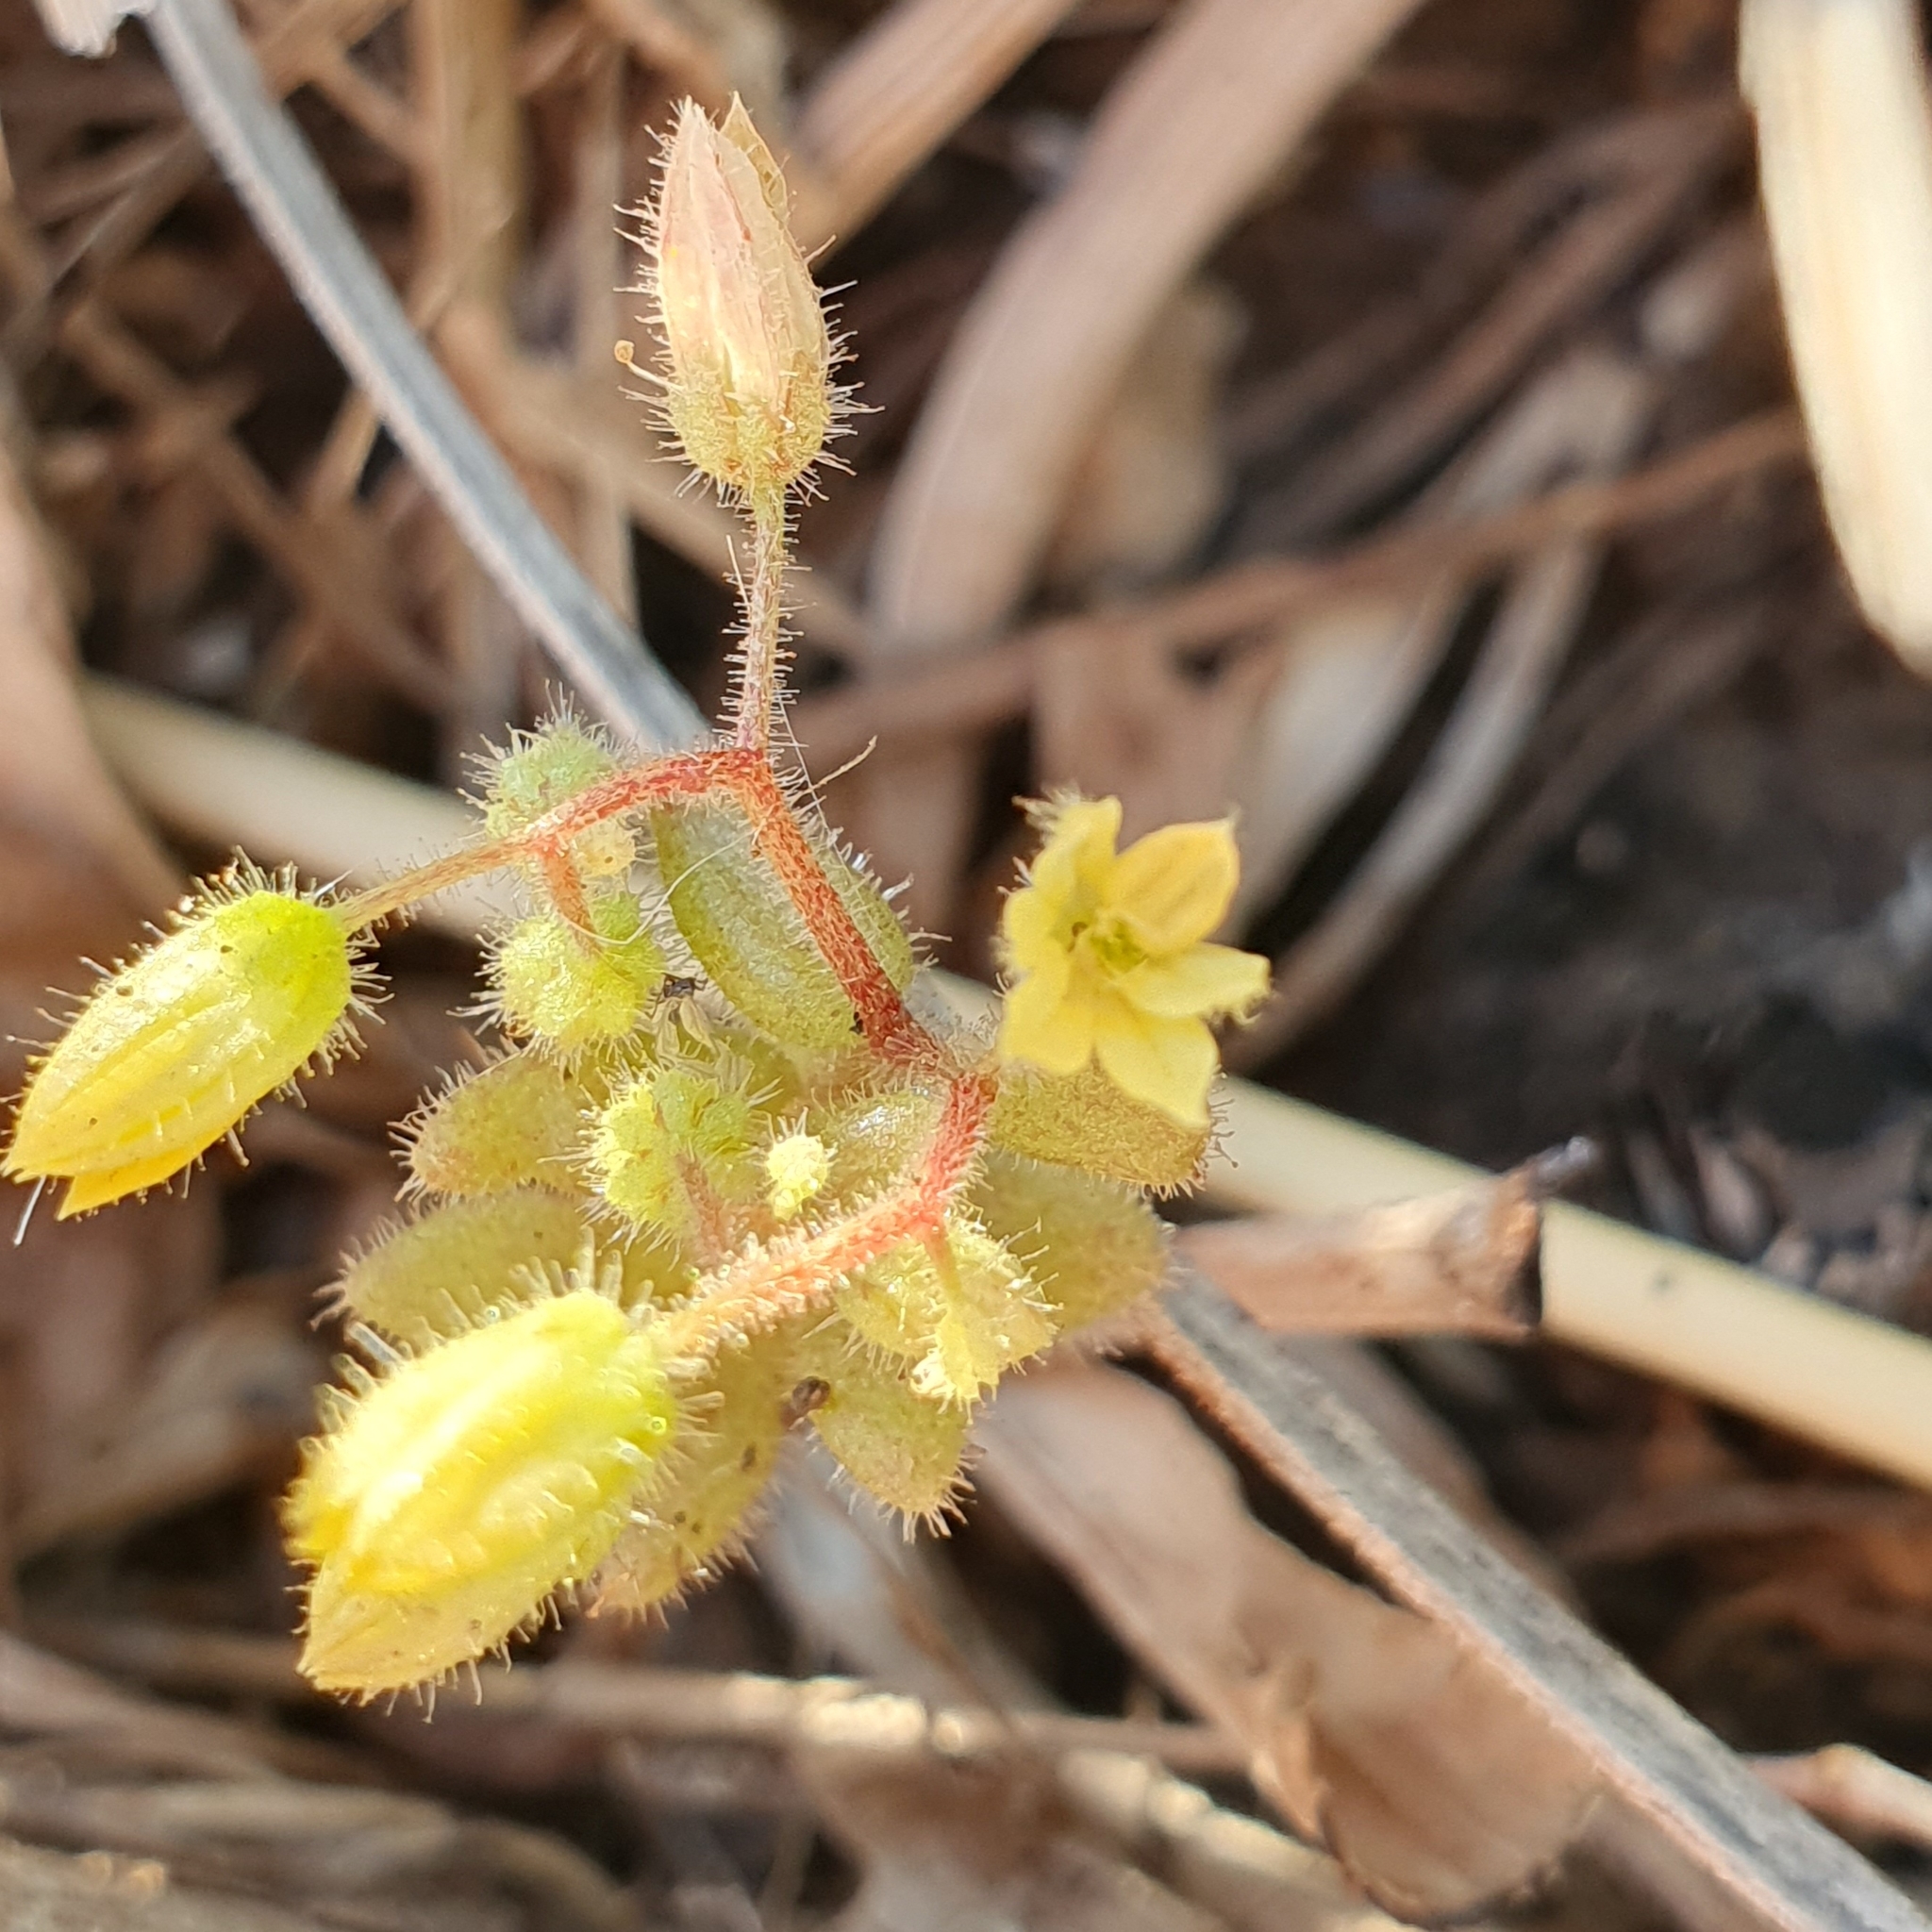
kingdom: Plantae
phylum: Tracheophyta
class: Magnoliopsida
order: Saxifragales
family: Crassulaceae
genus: Sedum
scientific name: Sedum pubescens
